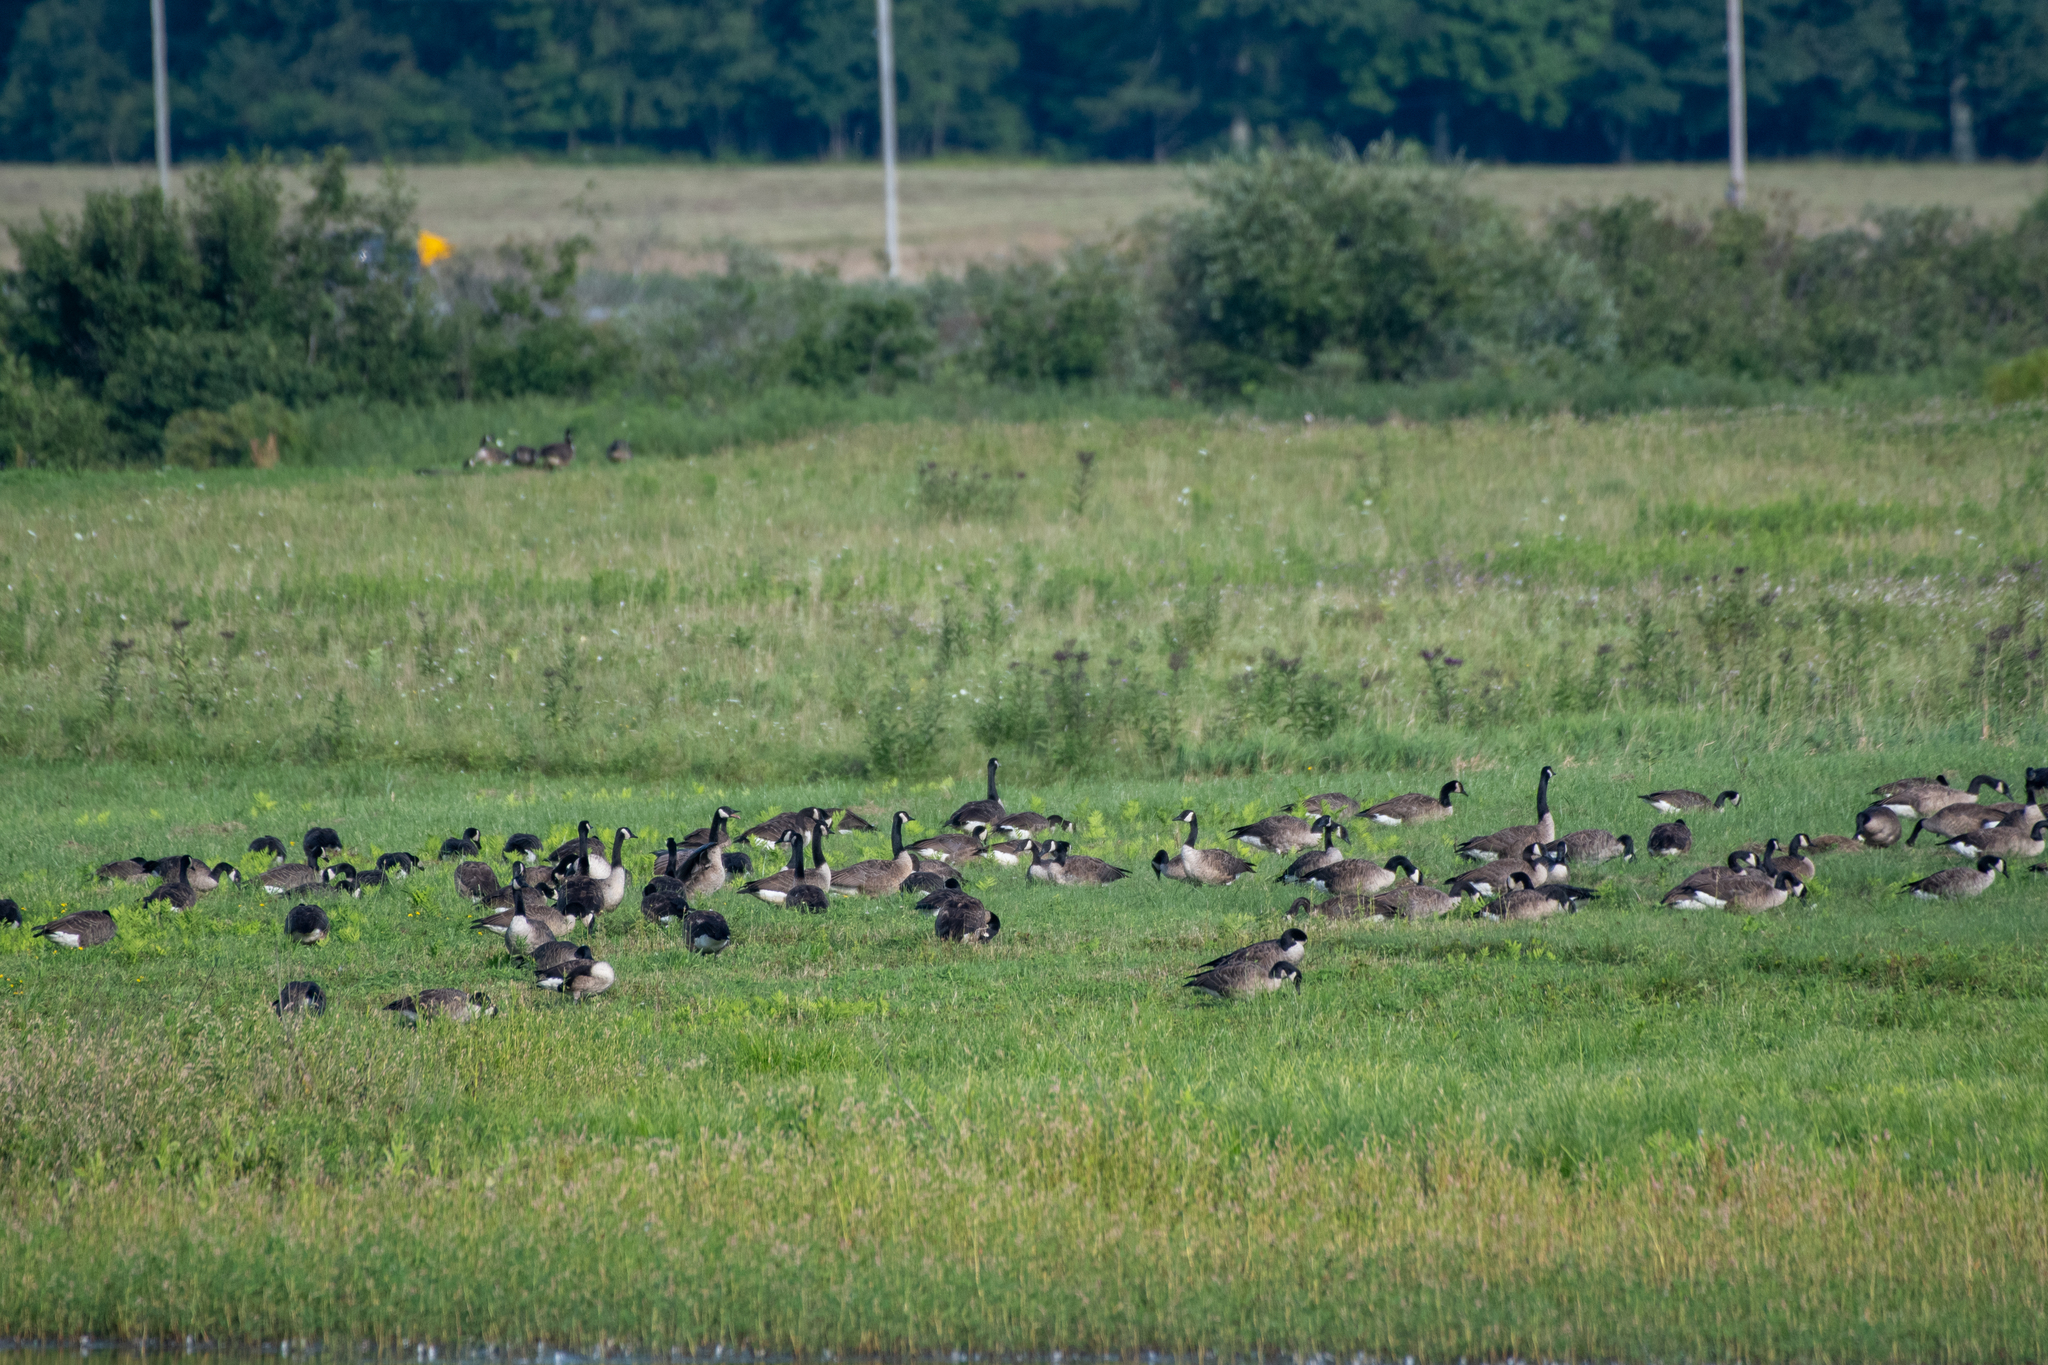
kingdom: Animalia
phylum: Chordata
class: Aves
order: Anseriformes
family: Anatidae
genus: Branta
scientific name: Branta canadensis
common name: Canada goose
